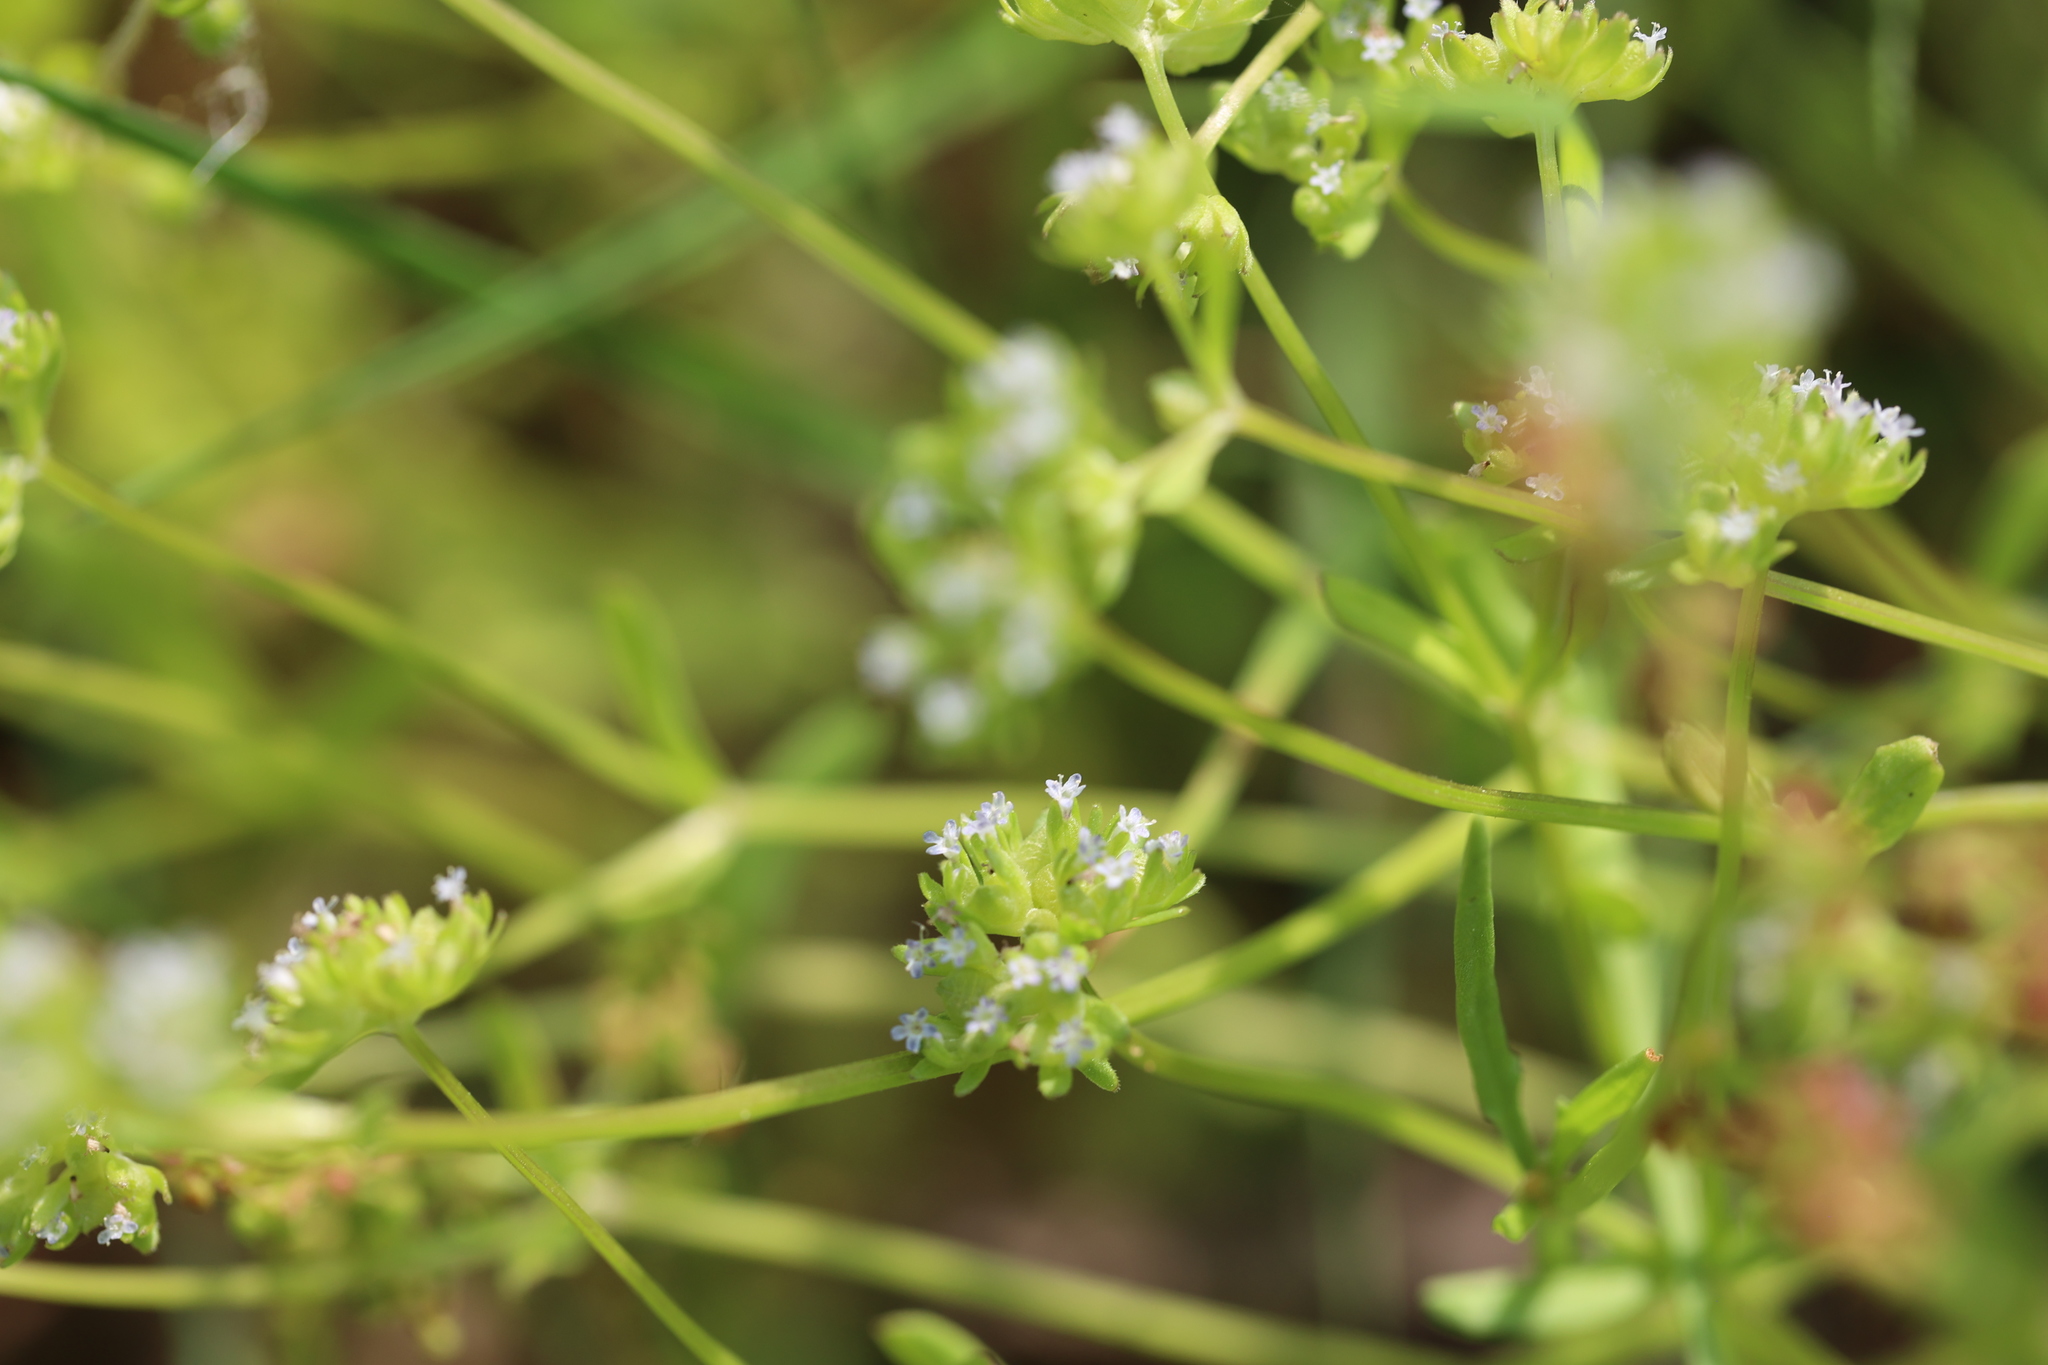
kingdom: Plantae
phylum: Tracheophyta
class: Magnoliopsida
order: Dipsacales
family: Caprifoliaceae
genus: Valerianella
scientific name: Valerianella locusta
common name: Common cornsalad
